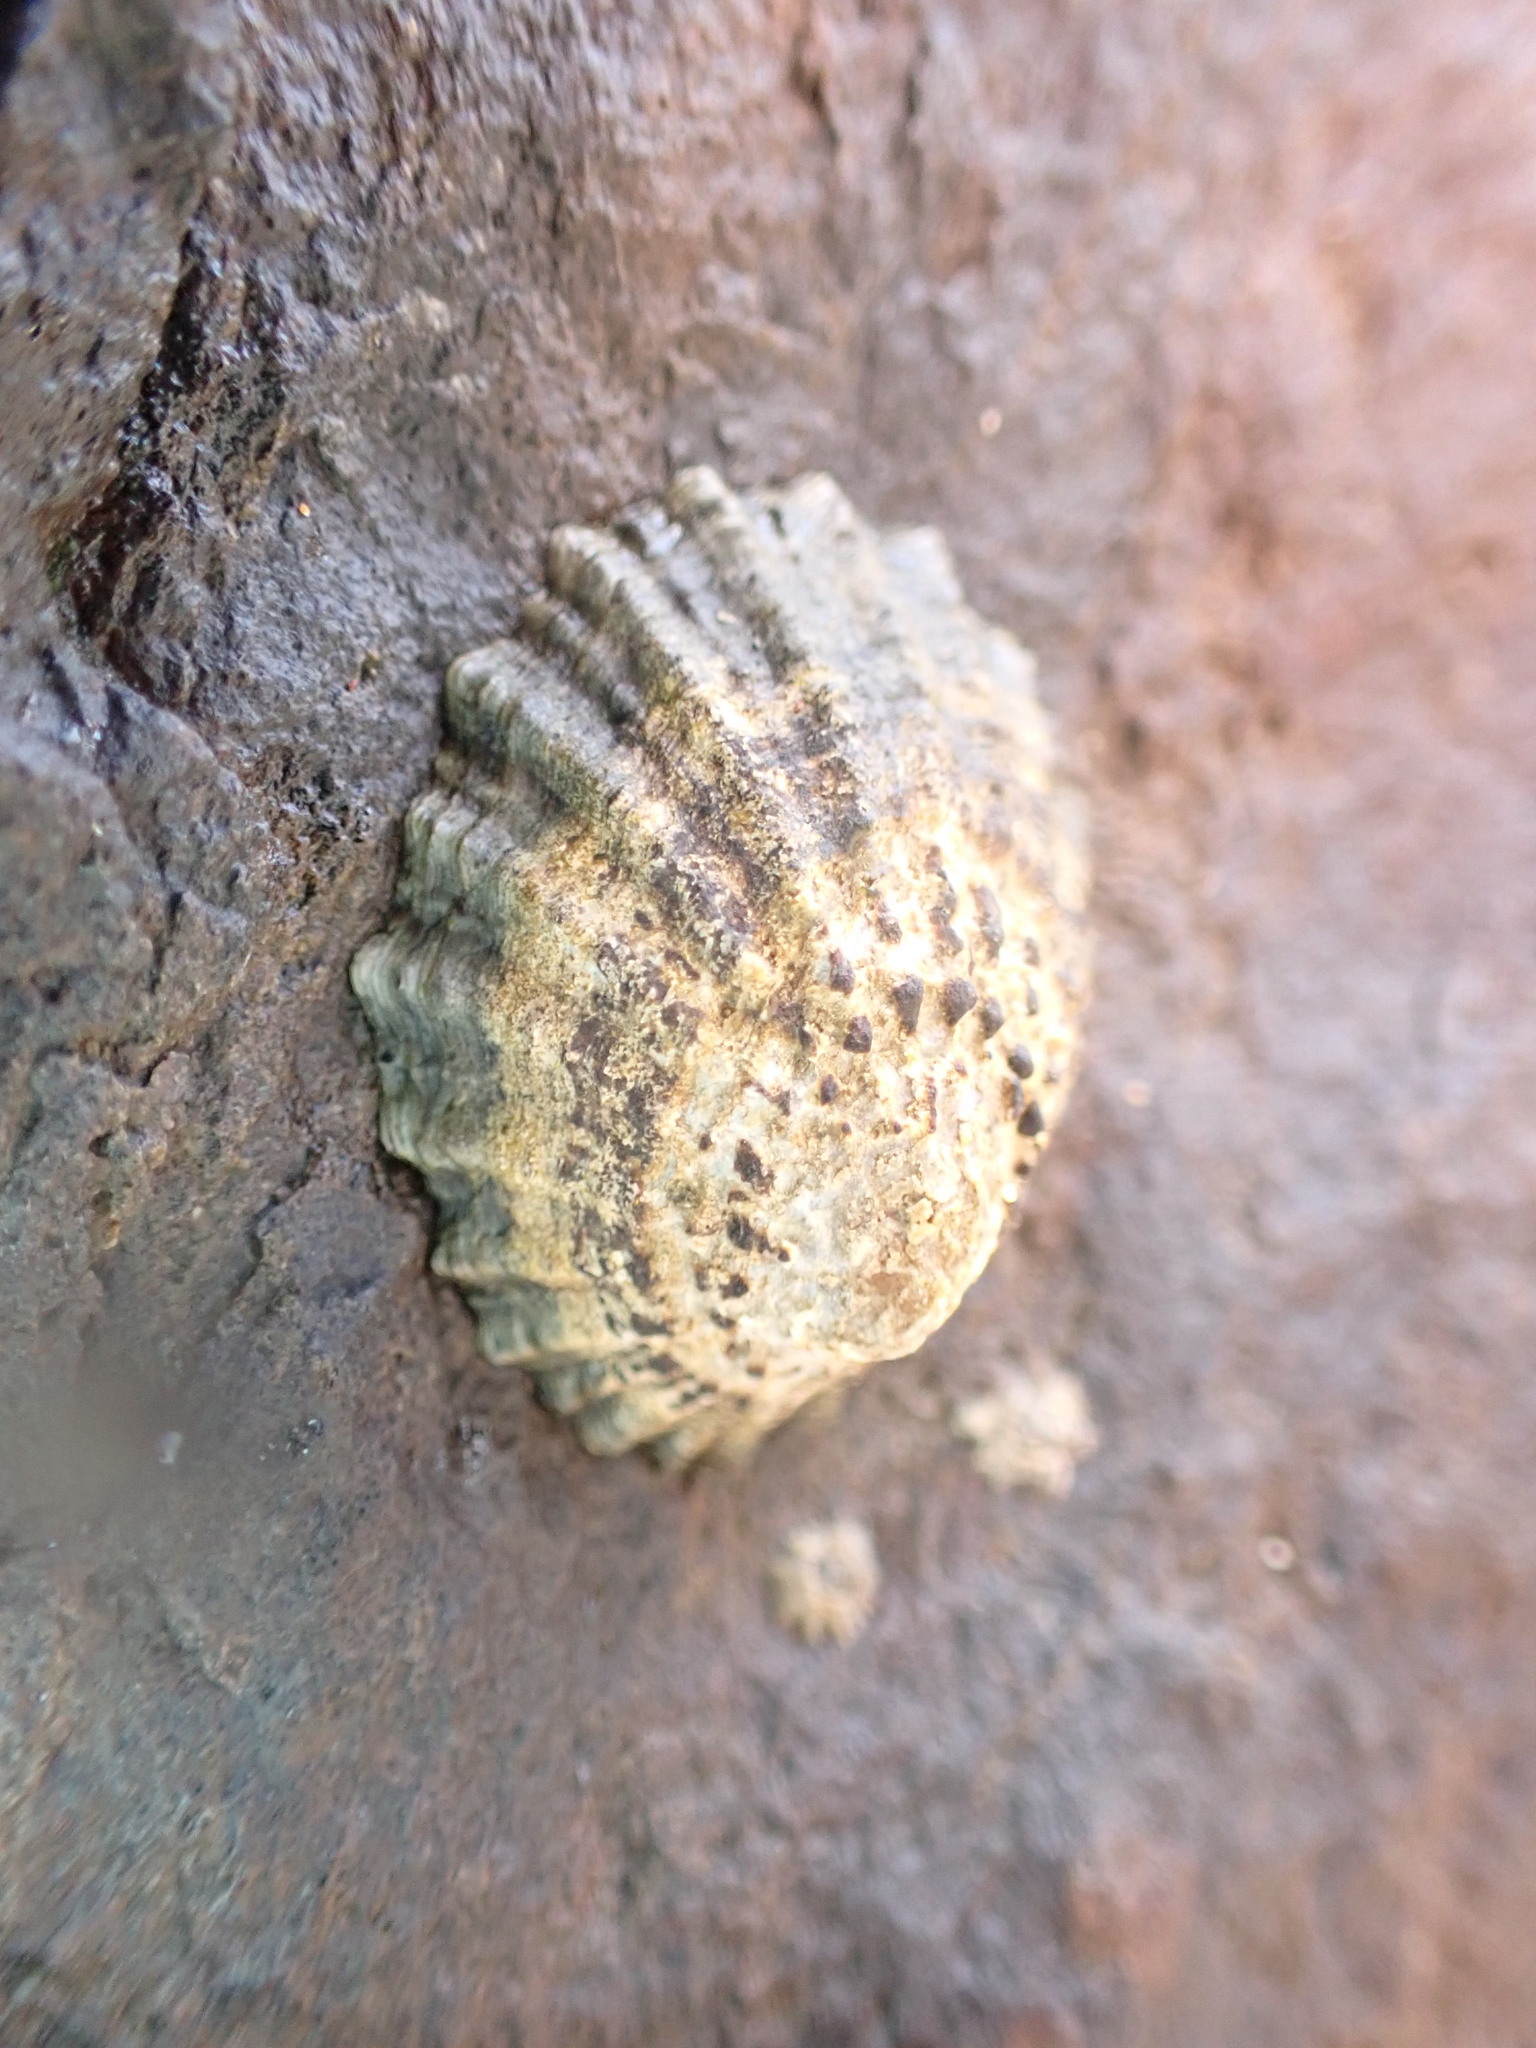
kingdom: Animalia
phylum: Mollusca
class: Gastropoda
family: Patellidae
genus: Patella
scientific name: Patella piperata
